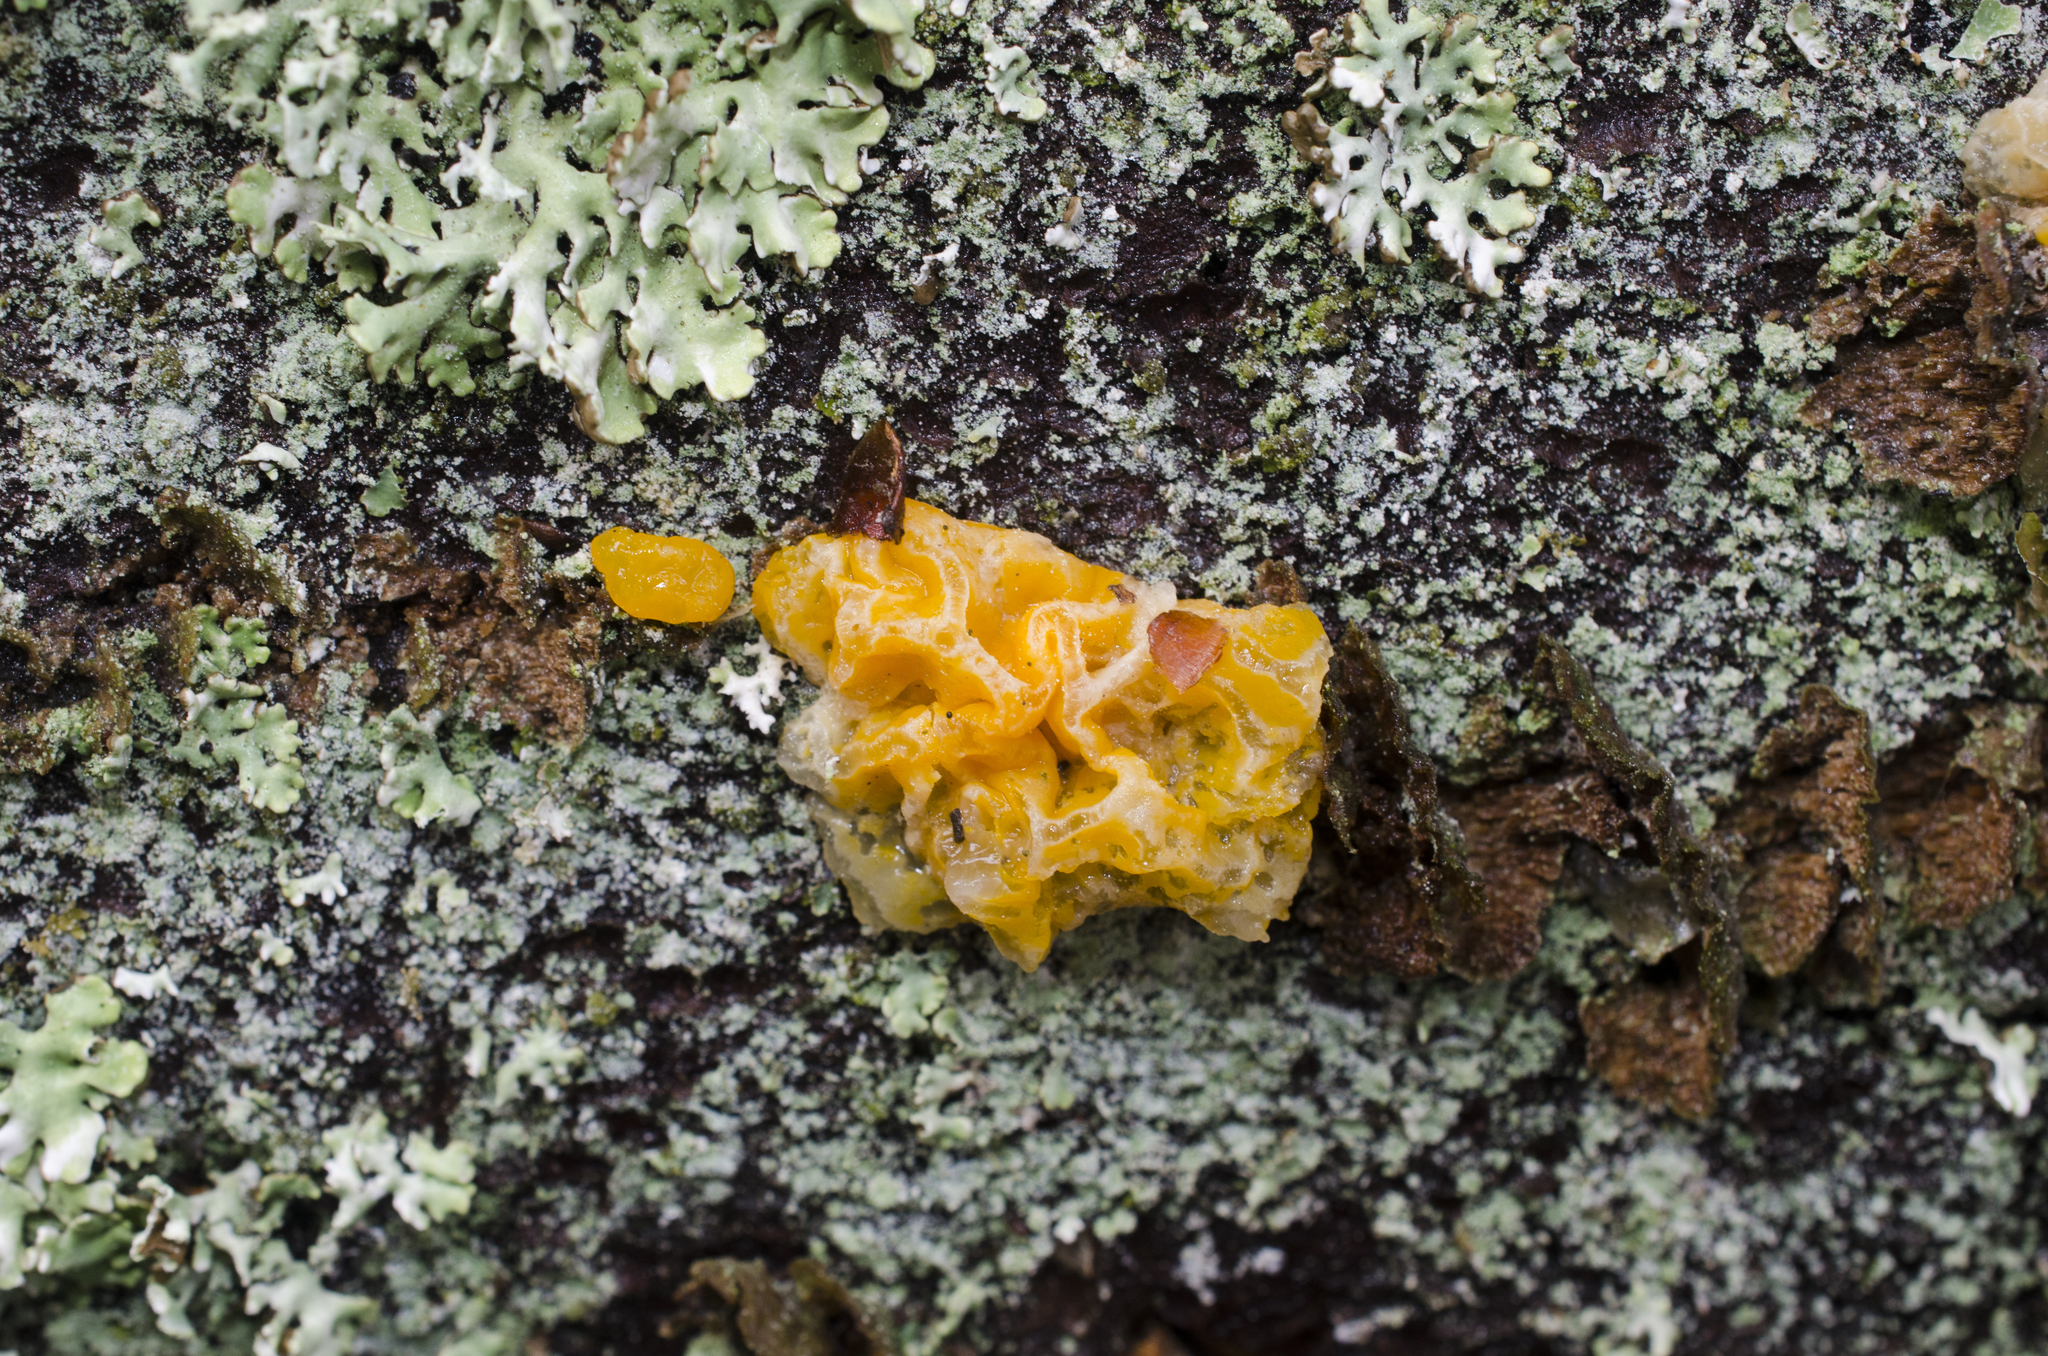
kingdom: Fungi
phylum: Basidiomycota
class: Dacrymycetes
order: Dacrymycetales
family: Dacrymycetaceae
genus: Dacrymyces
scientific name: Dacrymyces chrysospermus
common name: Orange jelly spot
